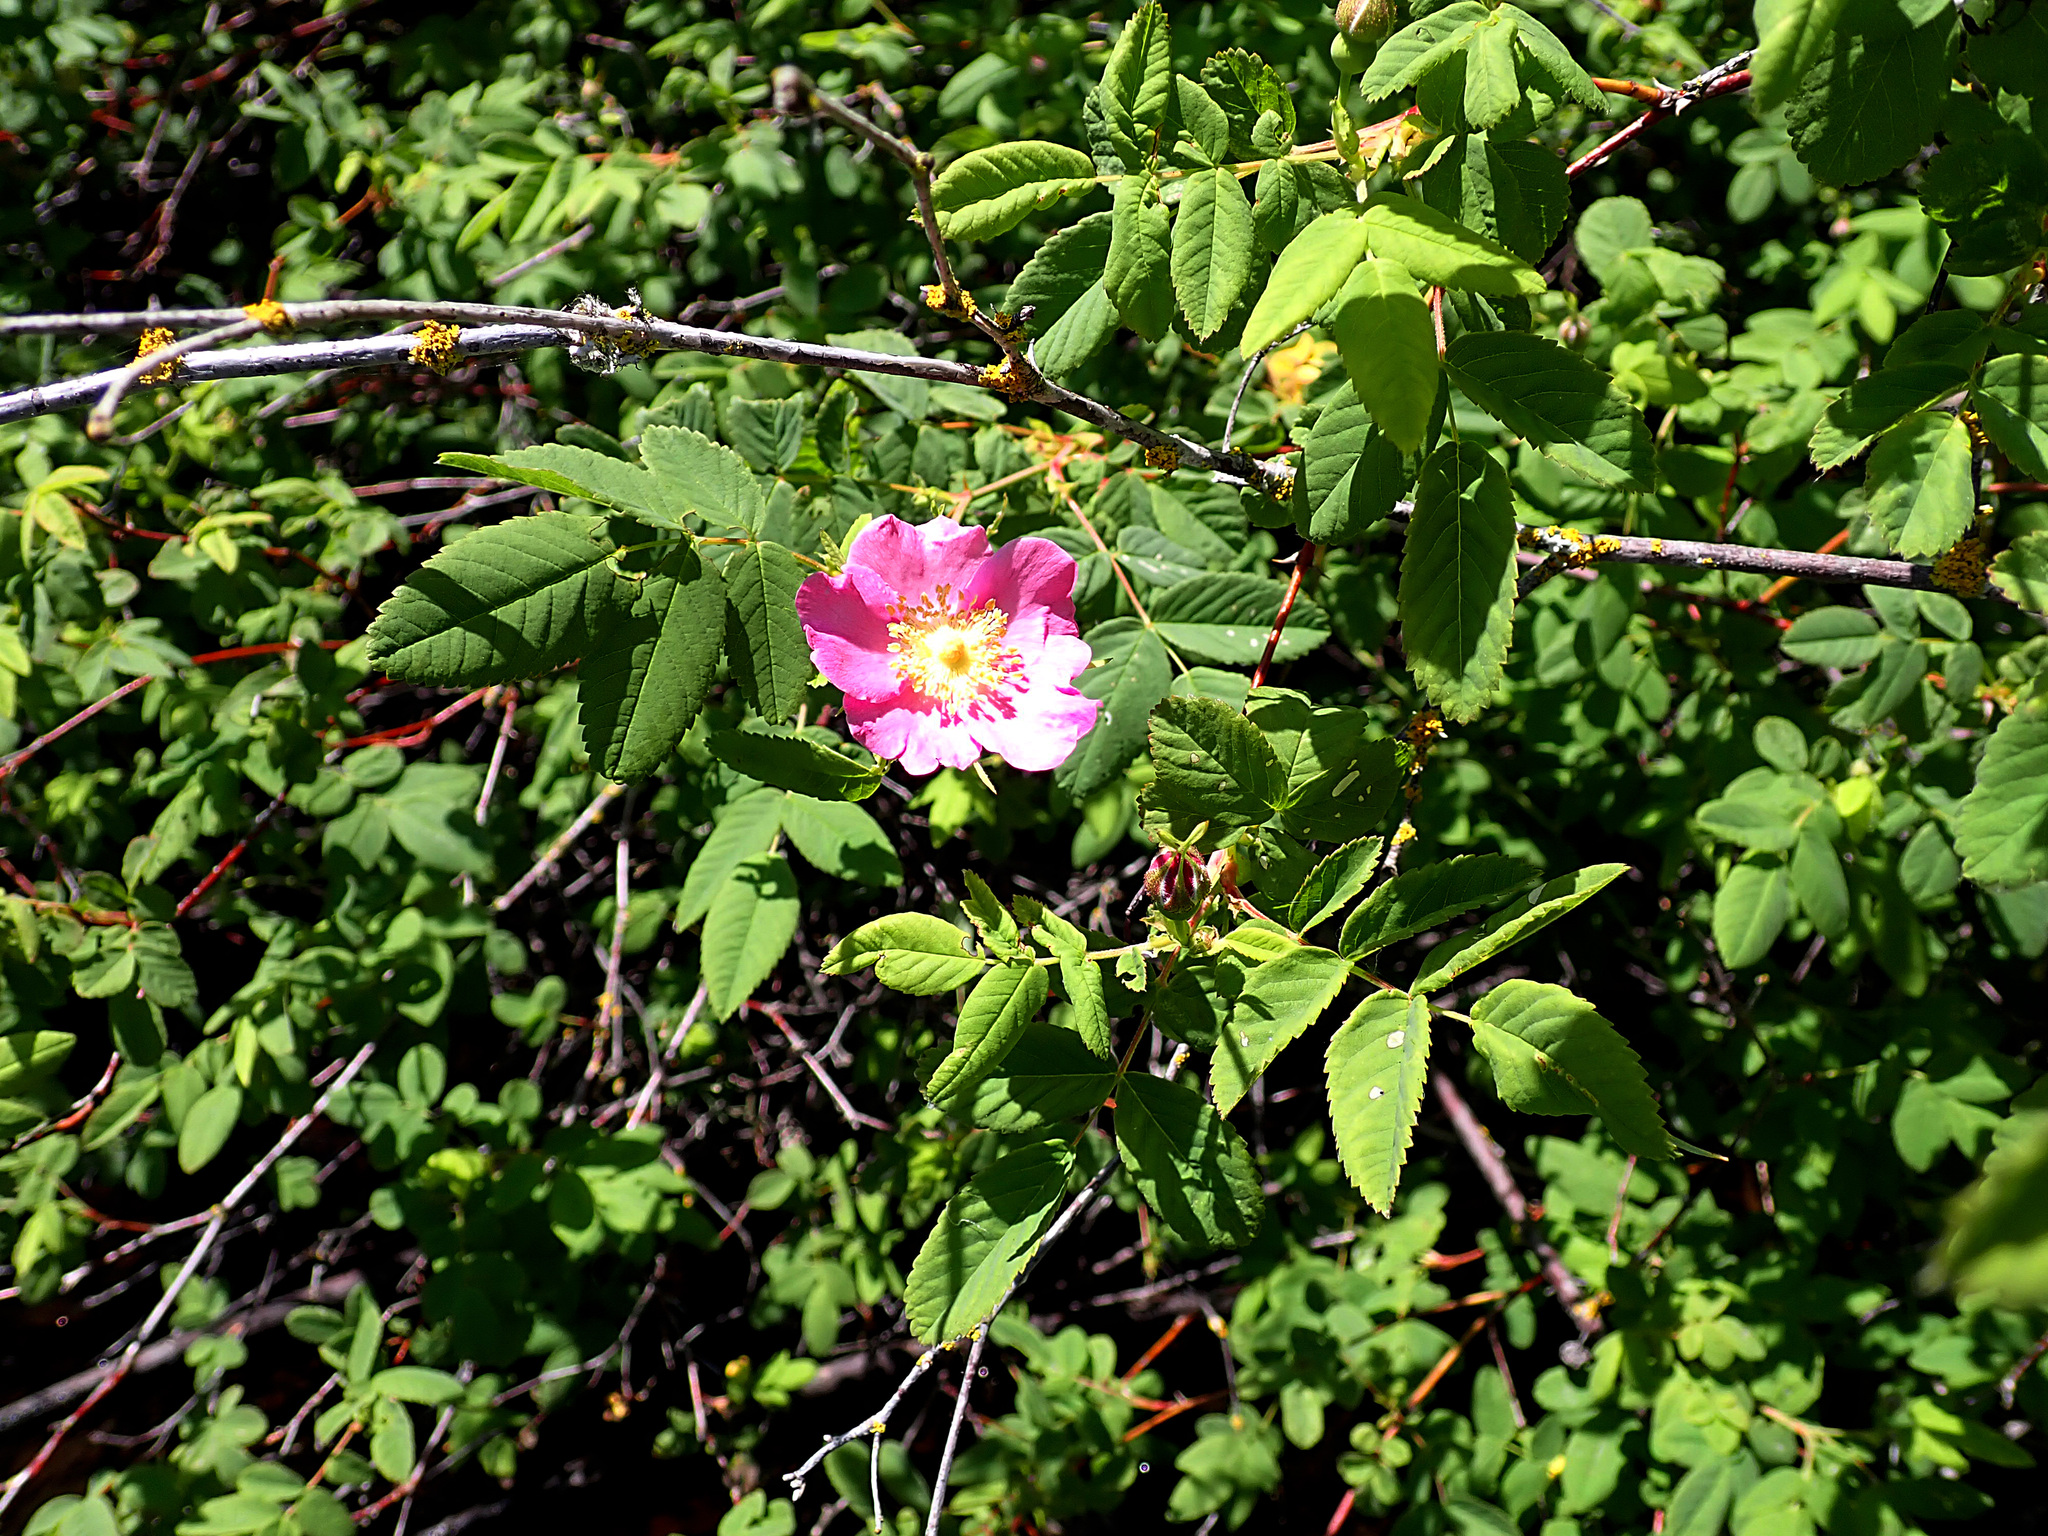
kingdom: Plantae
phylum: Tracheophyta
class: Magnoliopsida
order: Rosales
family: Rosaceae
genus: Rosa
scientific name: Rosa nutkana
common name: Nootka rose
